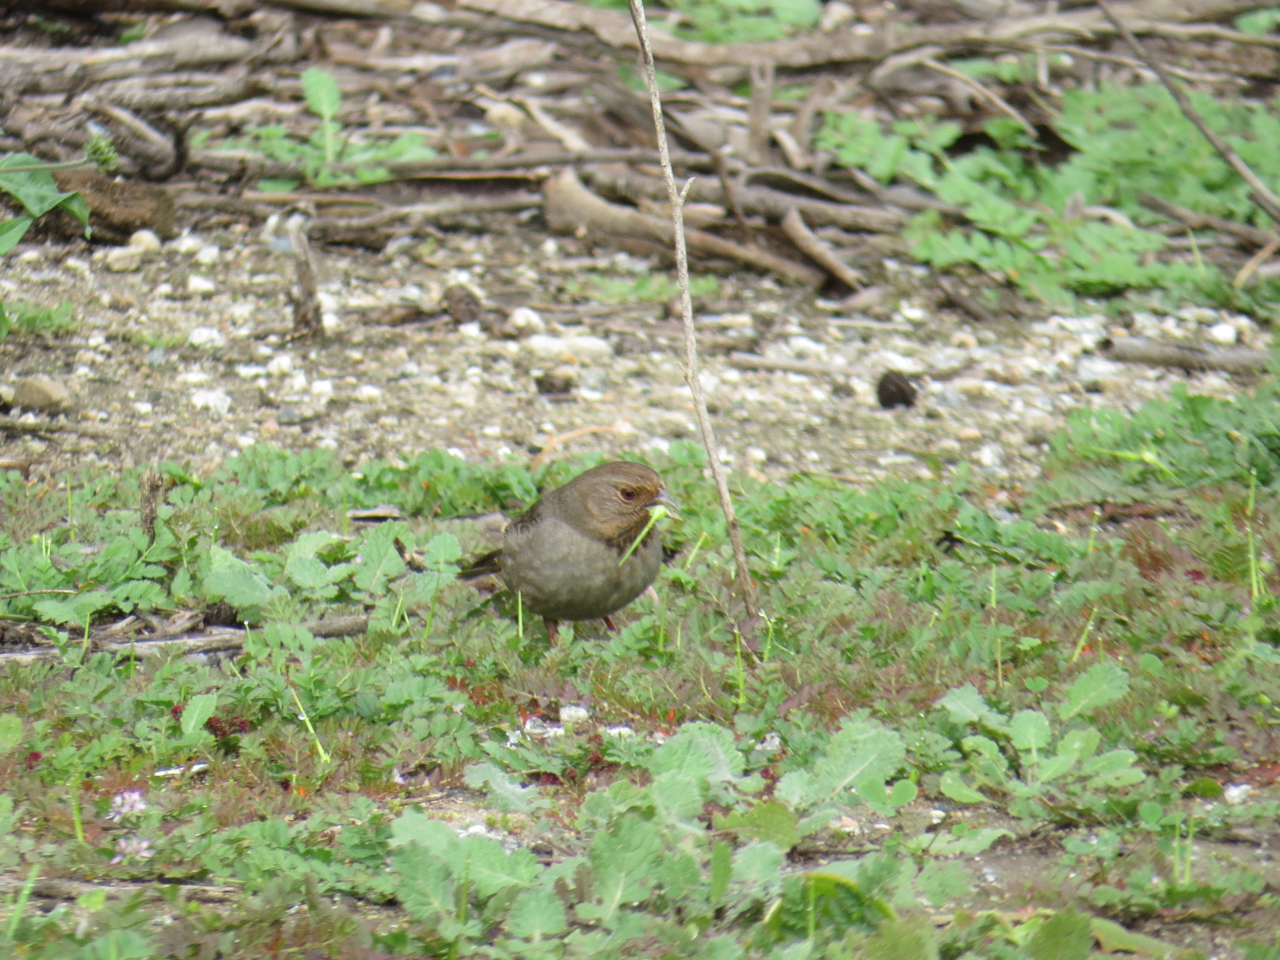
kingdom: Animalia
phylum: Chordata
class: Aves
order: Passeriformes
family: Passerellidae
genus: Melozone
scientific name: Melozone crissalis
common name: California towhee
